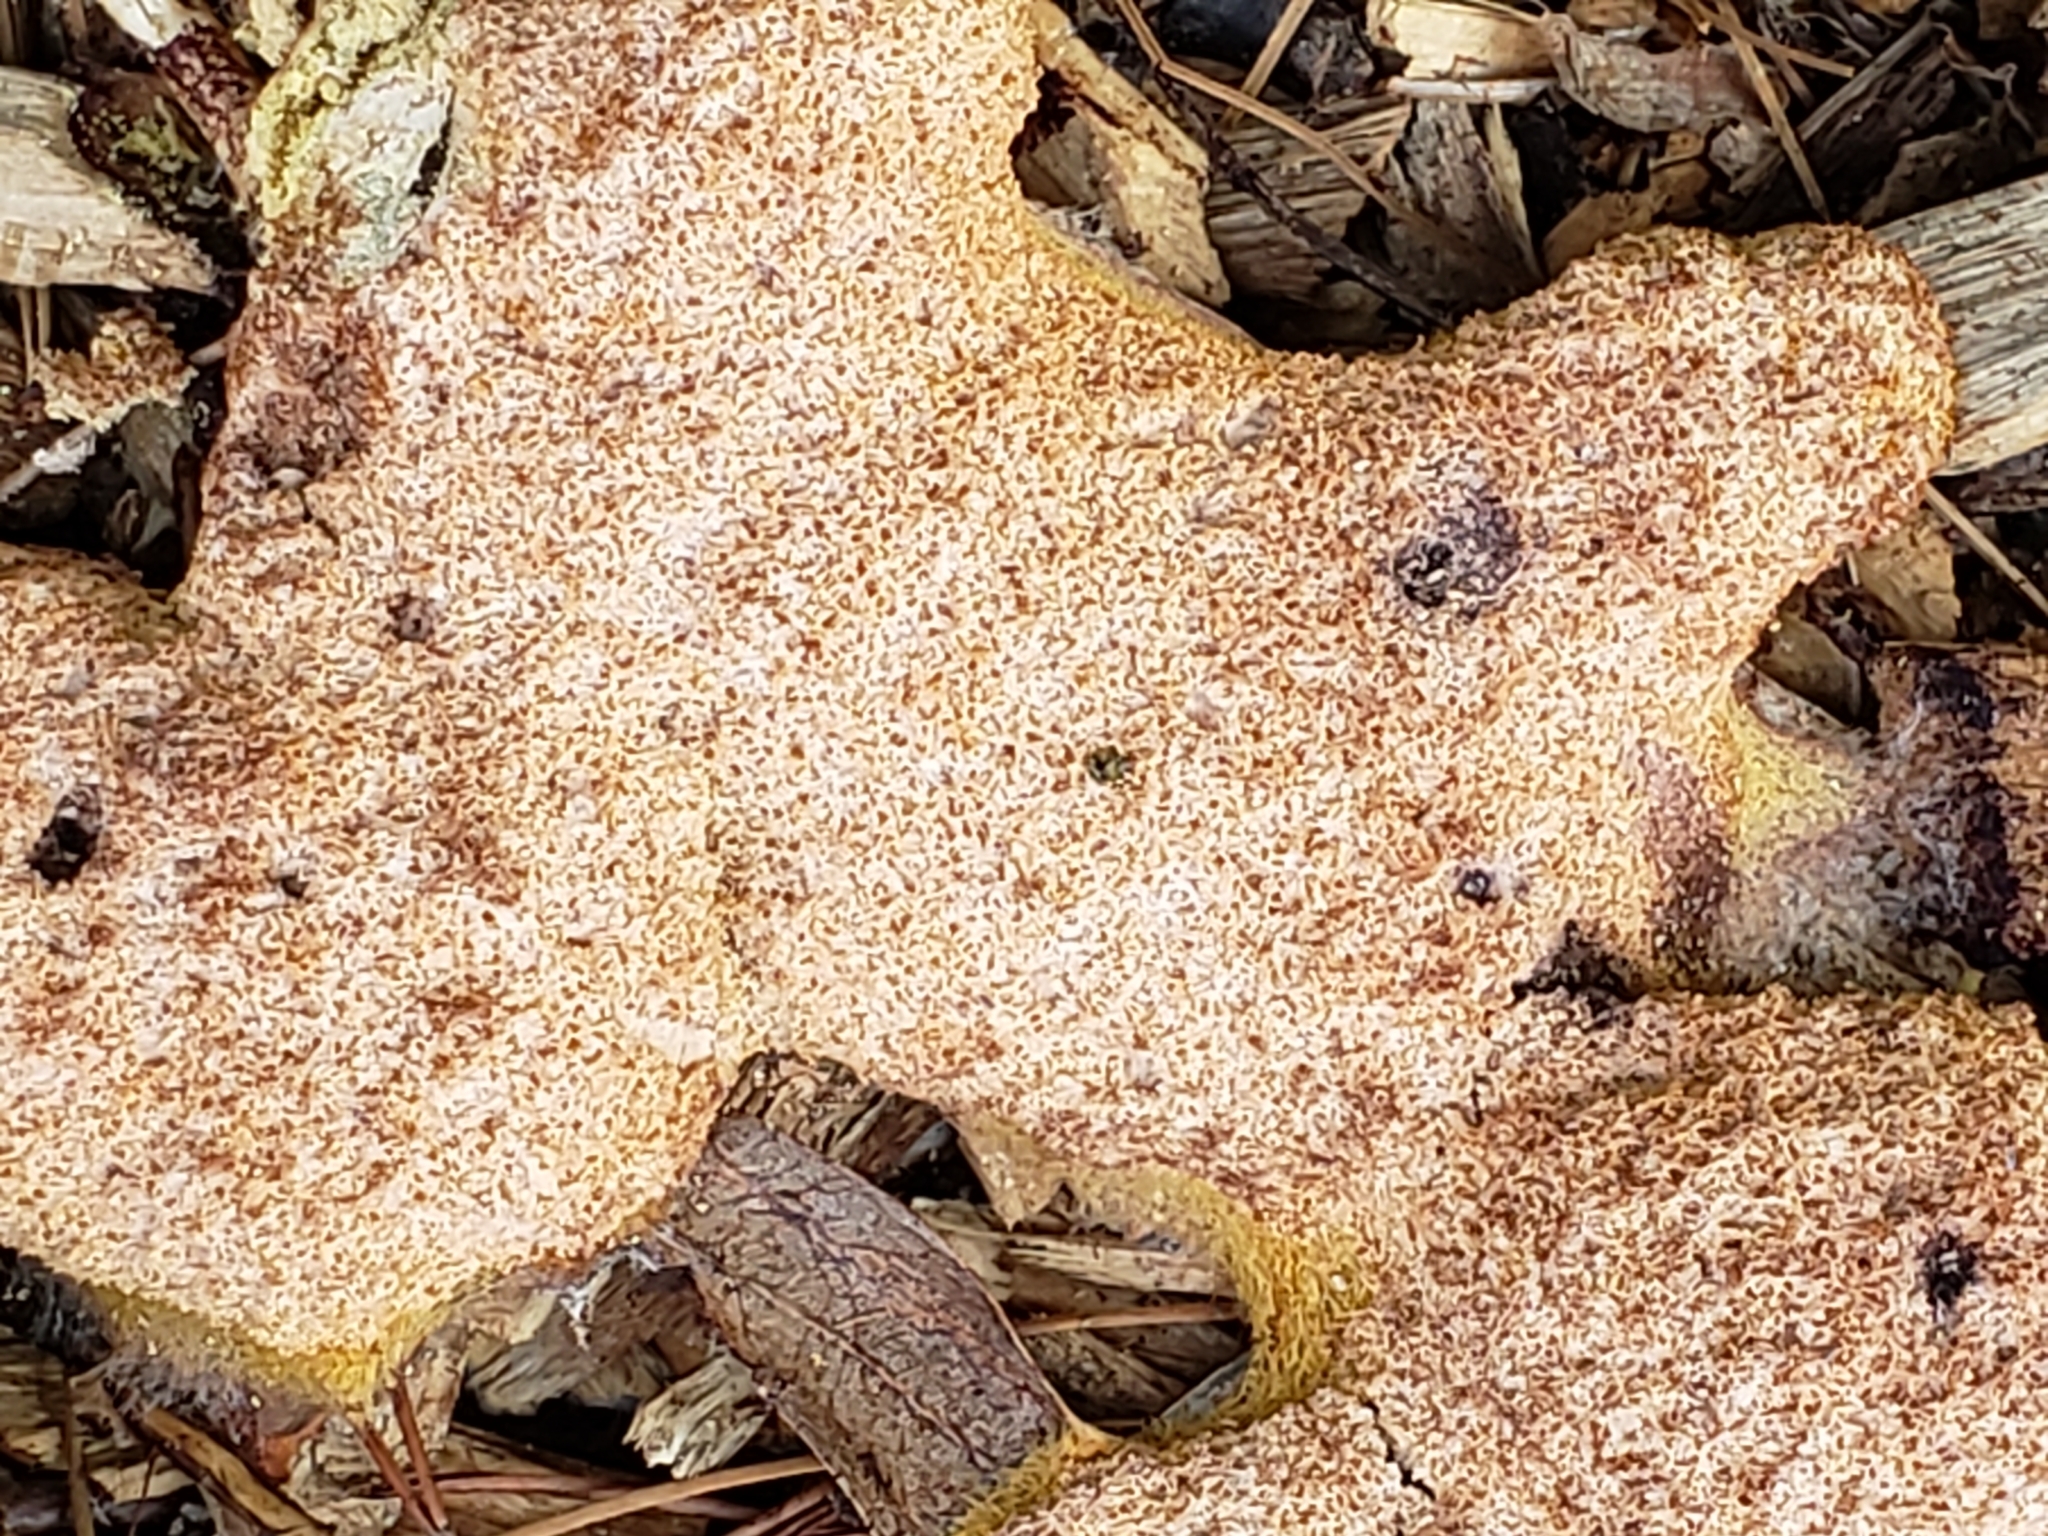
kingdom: Protozoa
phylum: Mycetozoa
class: Myxomycetes
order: Physarales
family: Physaraceae
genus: Fuligo
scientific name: Fuligo septica
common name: Dog vomit slime mold
